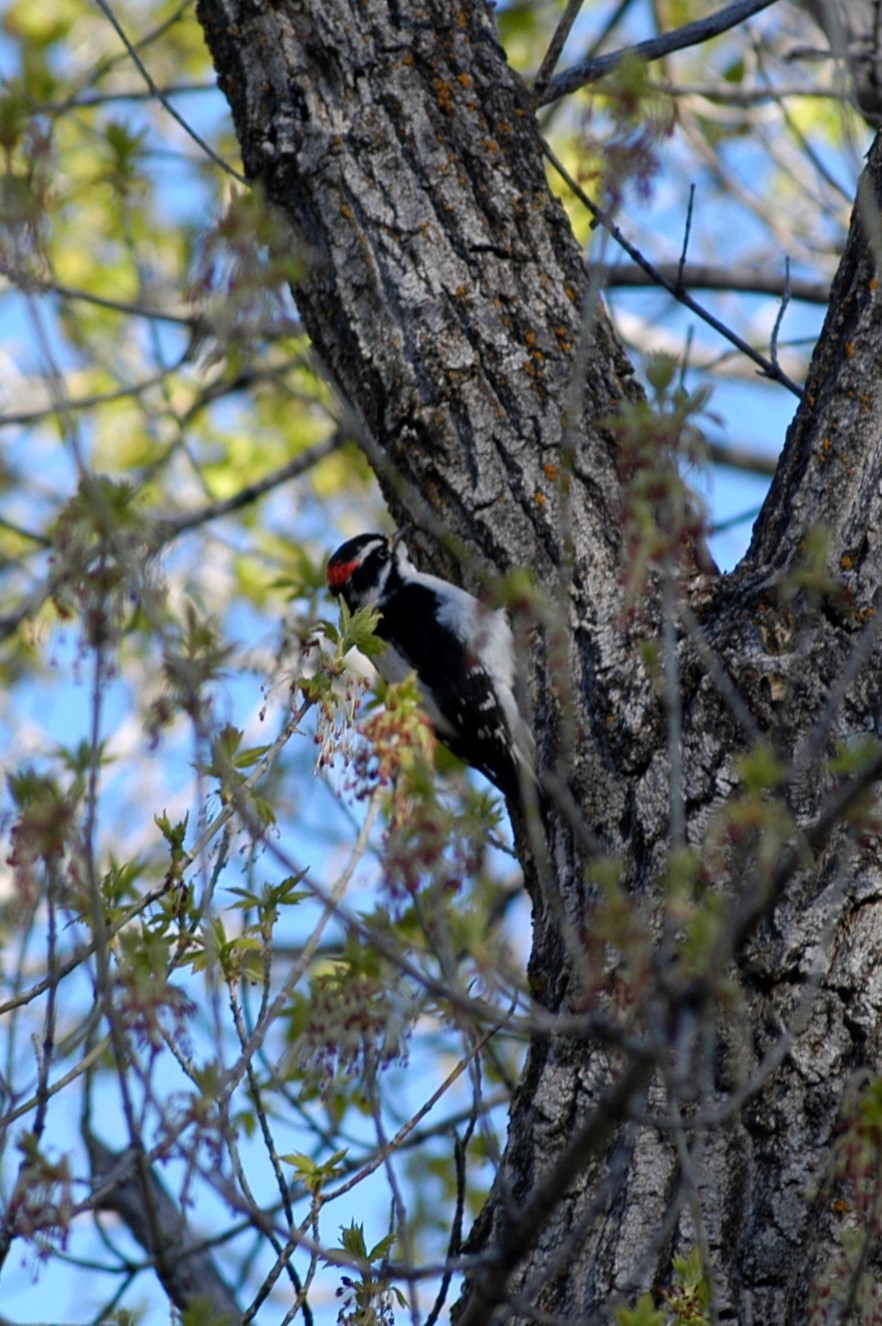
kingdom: Animalia
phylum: Chordata
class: Aves
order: Piciformes
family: Picidae
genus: Dryobates
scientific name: Dryobates pubescens
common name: Downy woodpecker
